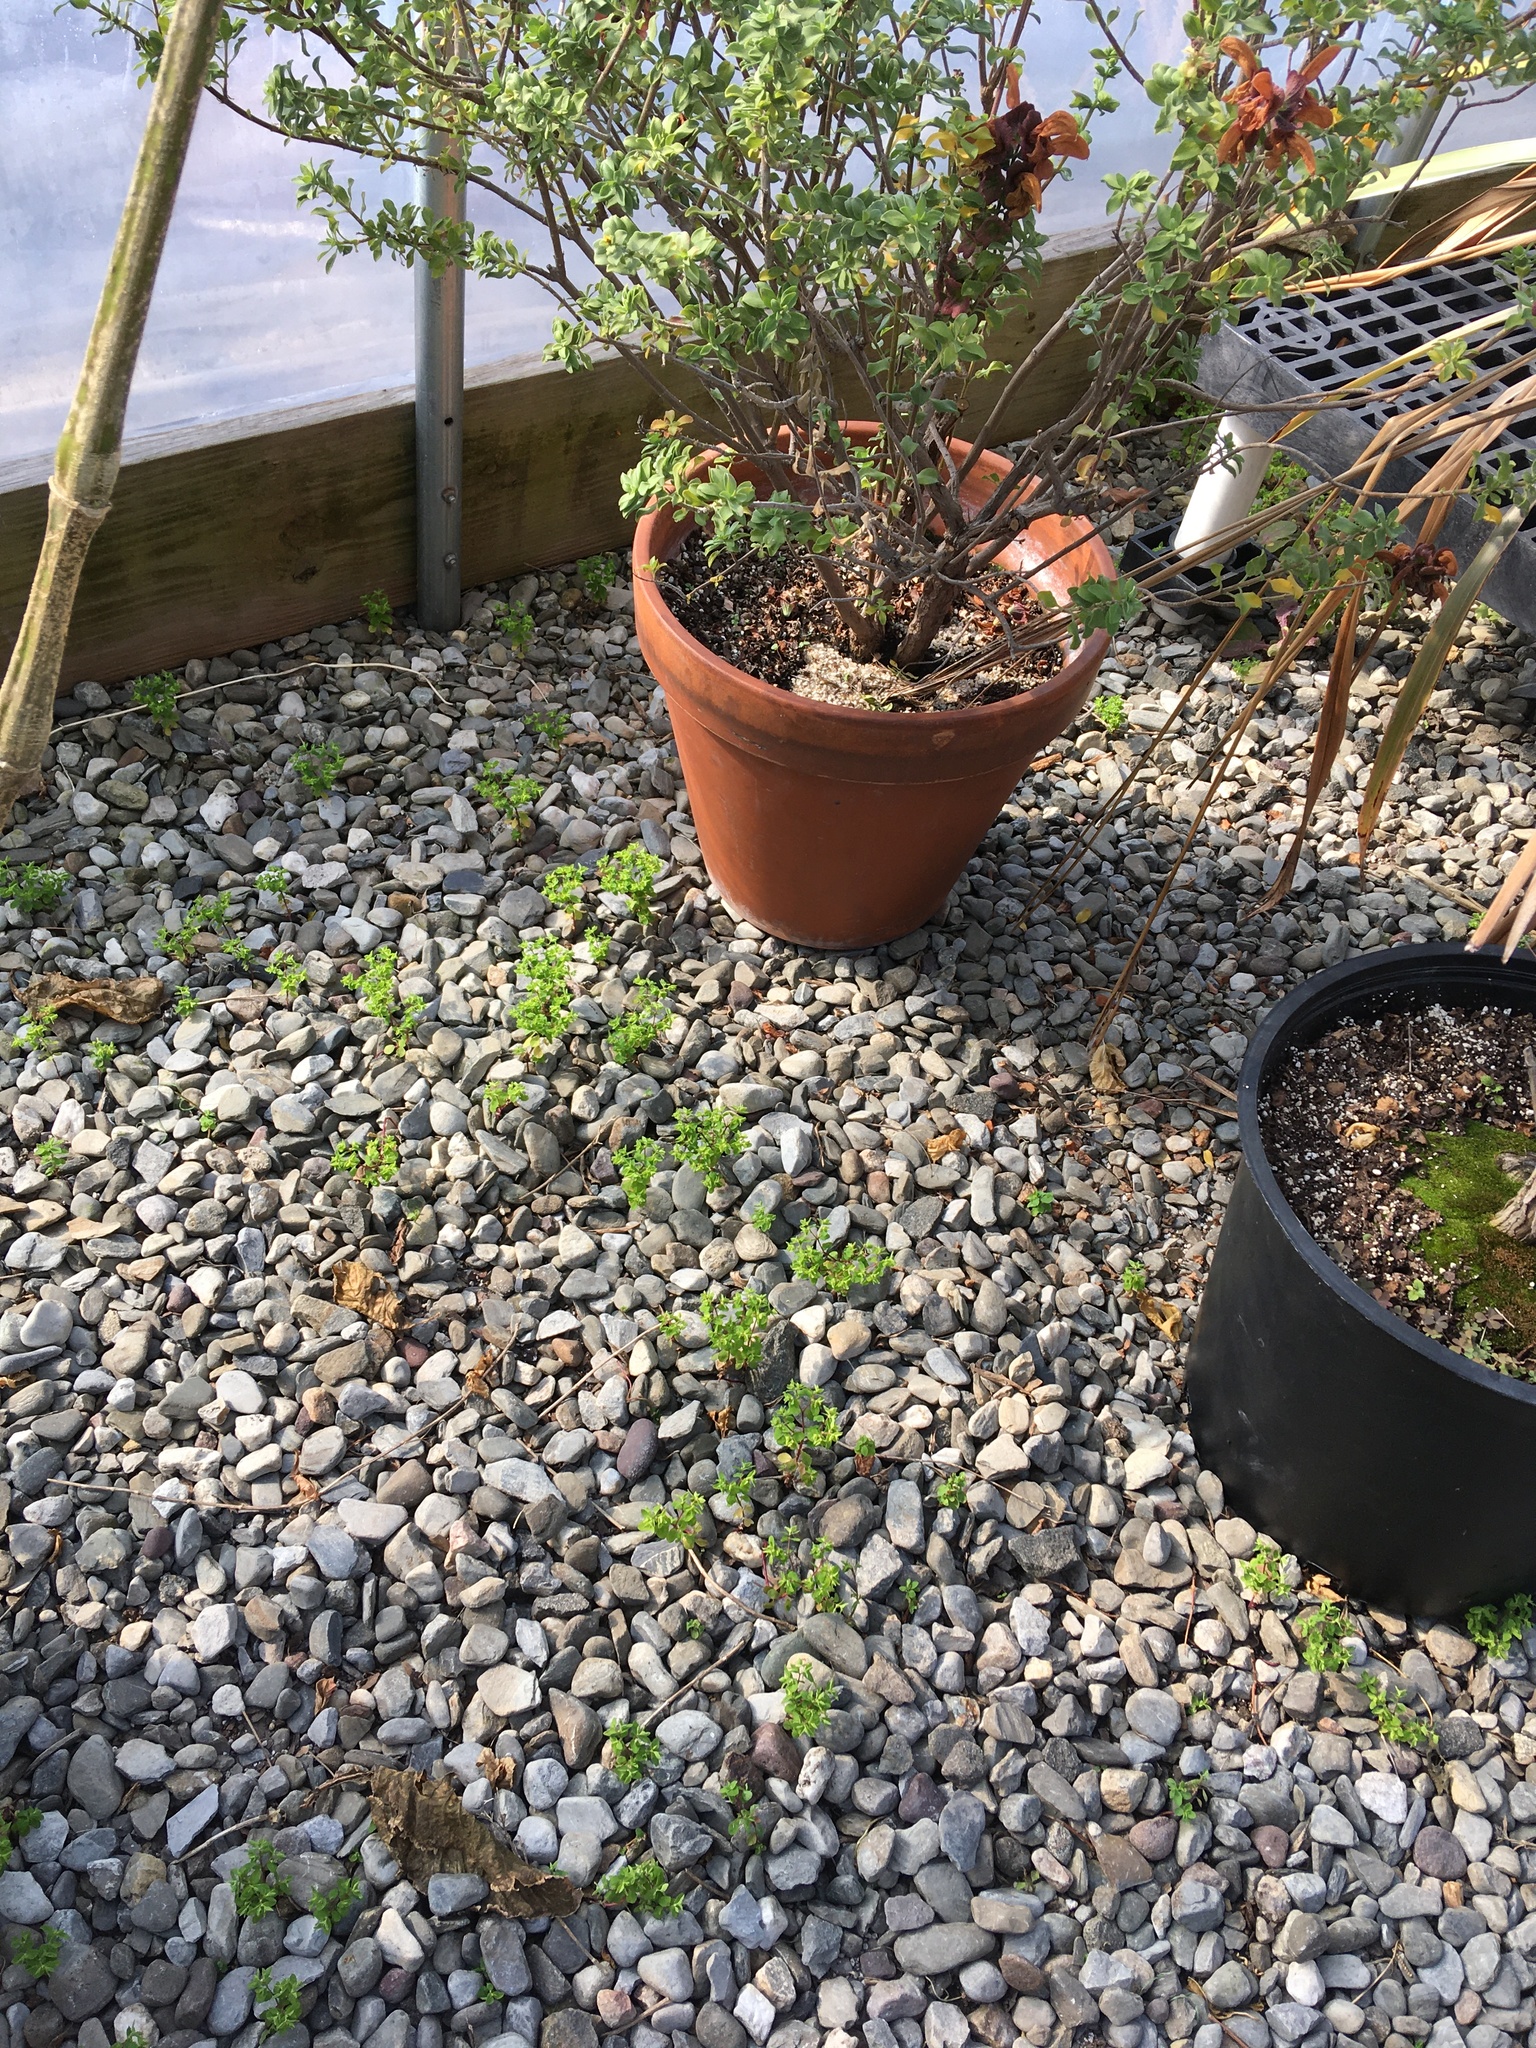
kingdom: Plantae
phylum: Tracheophyta
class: Magnoliopsida
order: Malpighiales
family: Euphorbiaceae
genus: Euphorbia
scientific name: Euphorbia peplus
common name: Petty spurge
